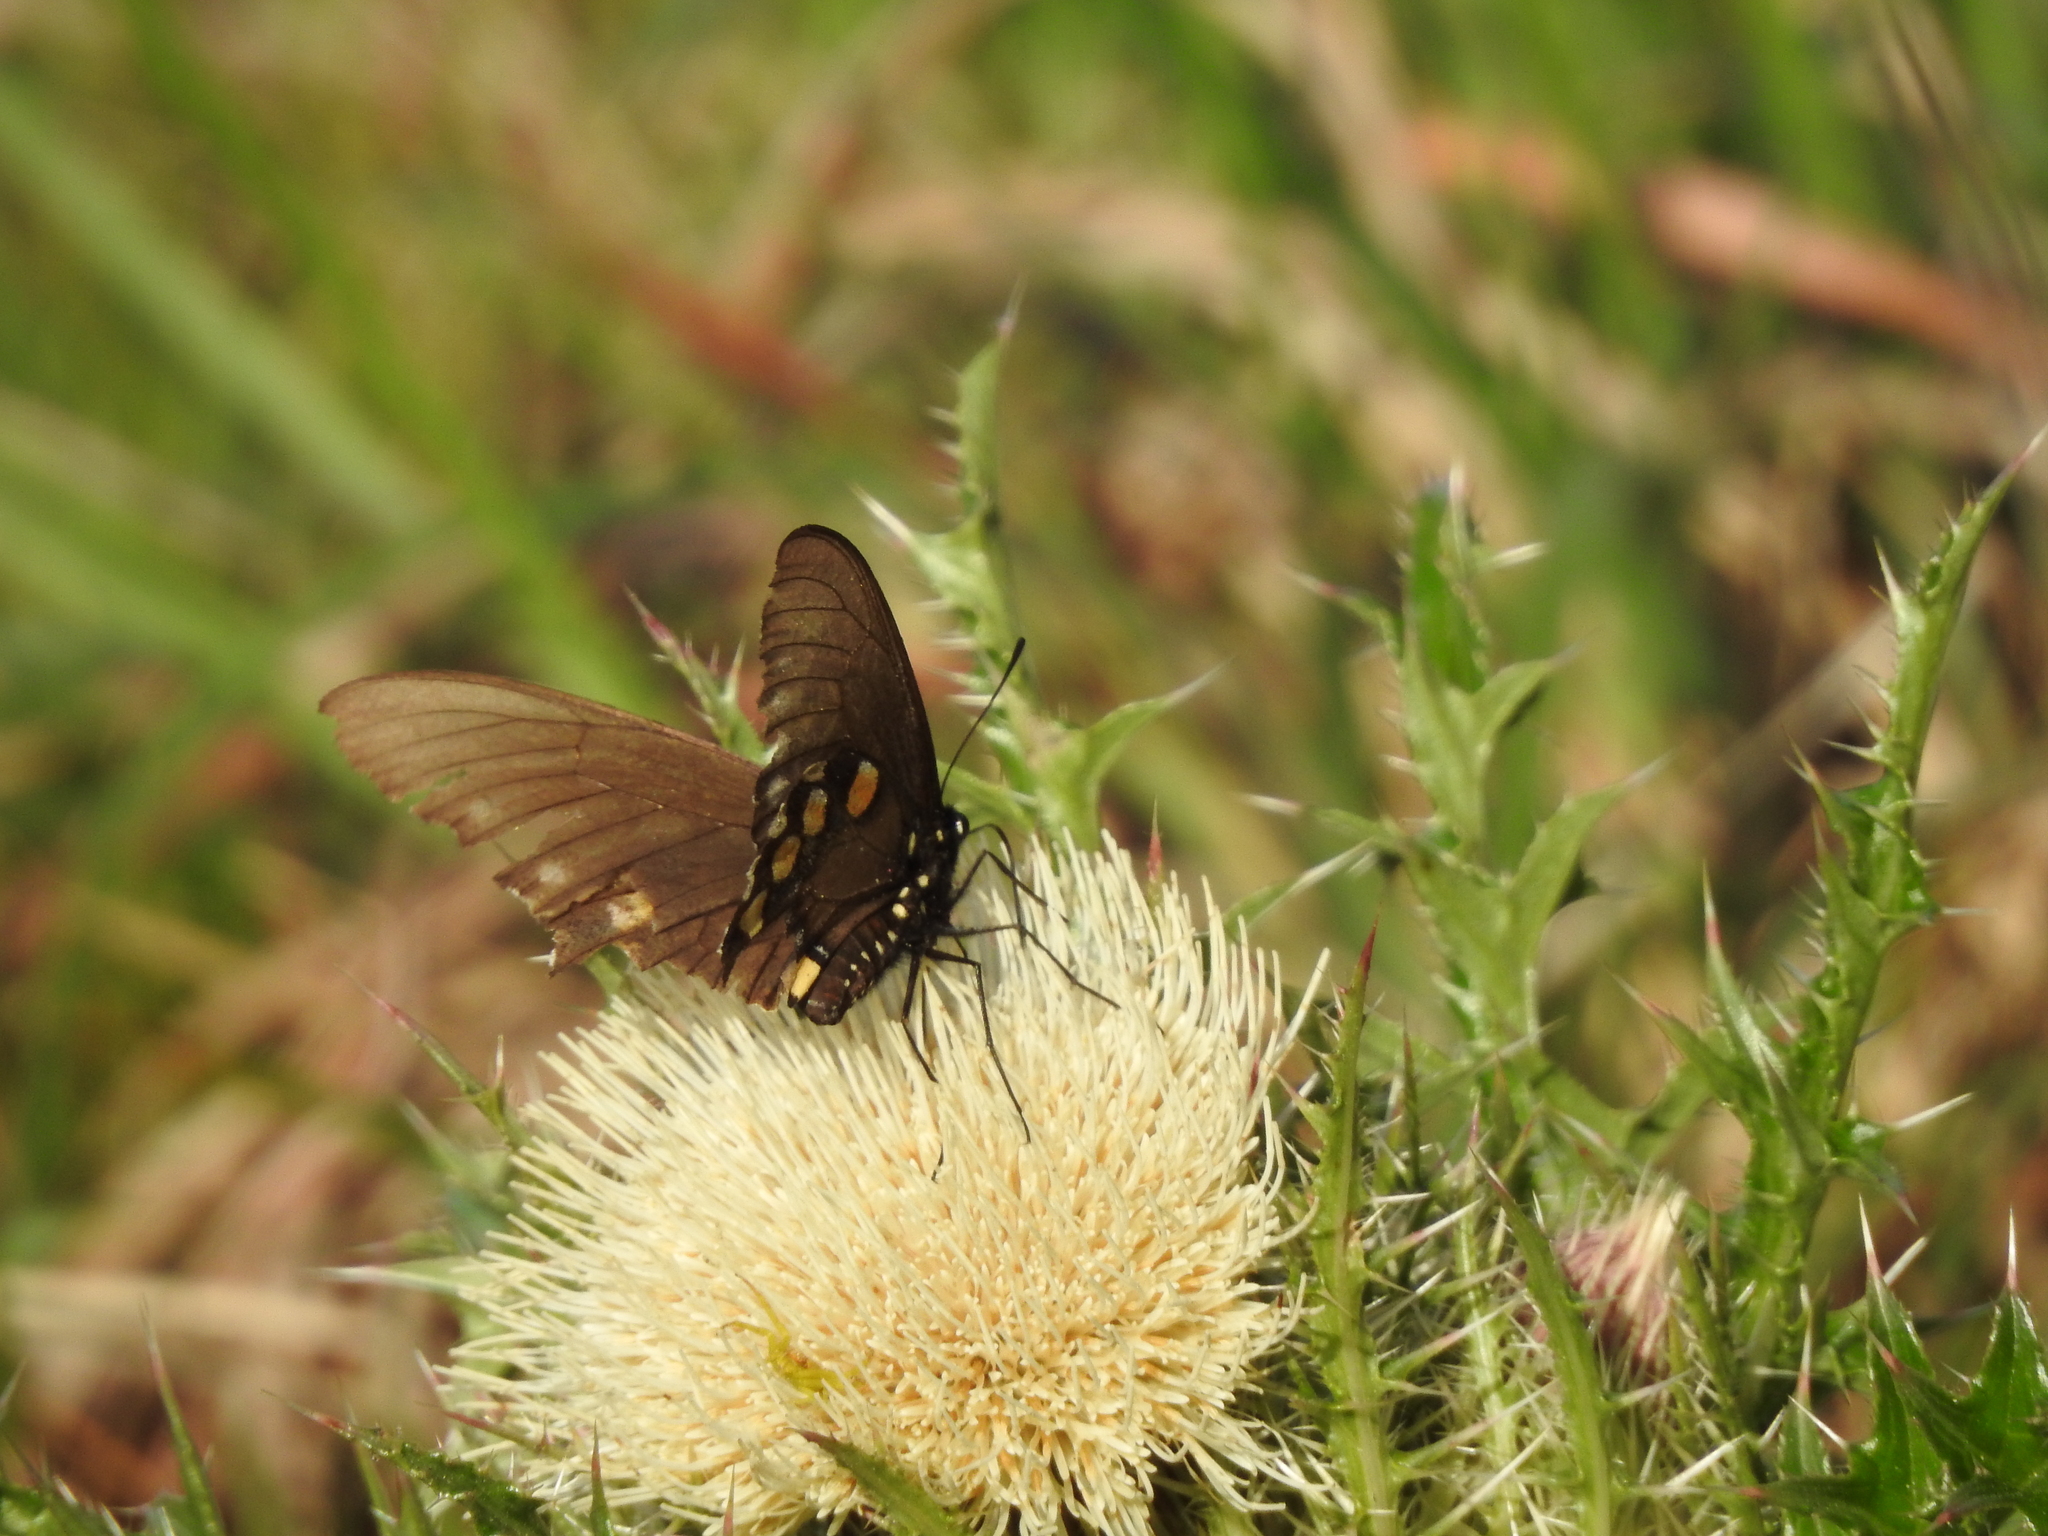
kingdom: Animalia
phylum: Arthropoda
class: Insecta
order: Lepidoptera
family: Papilionidae
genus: Battus
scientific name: Battus philenor
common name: Pipevine swallowtail
